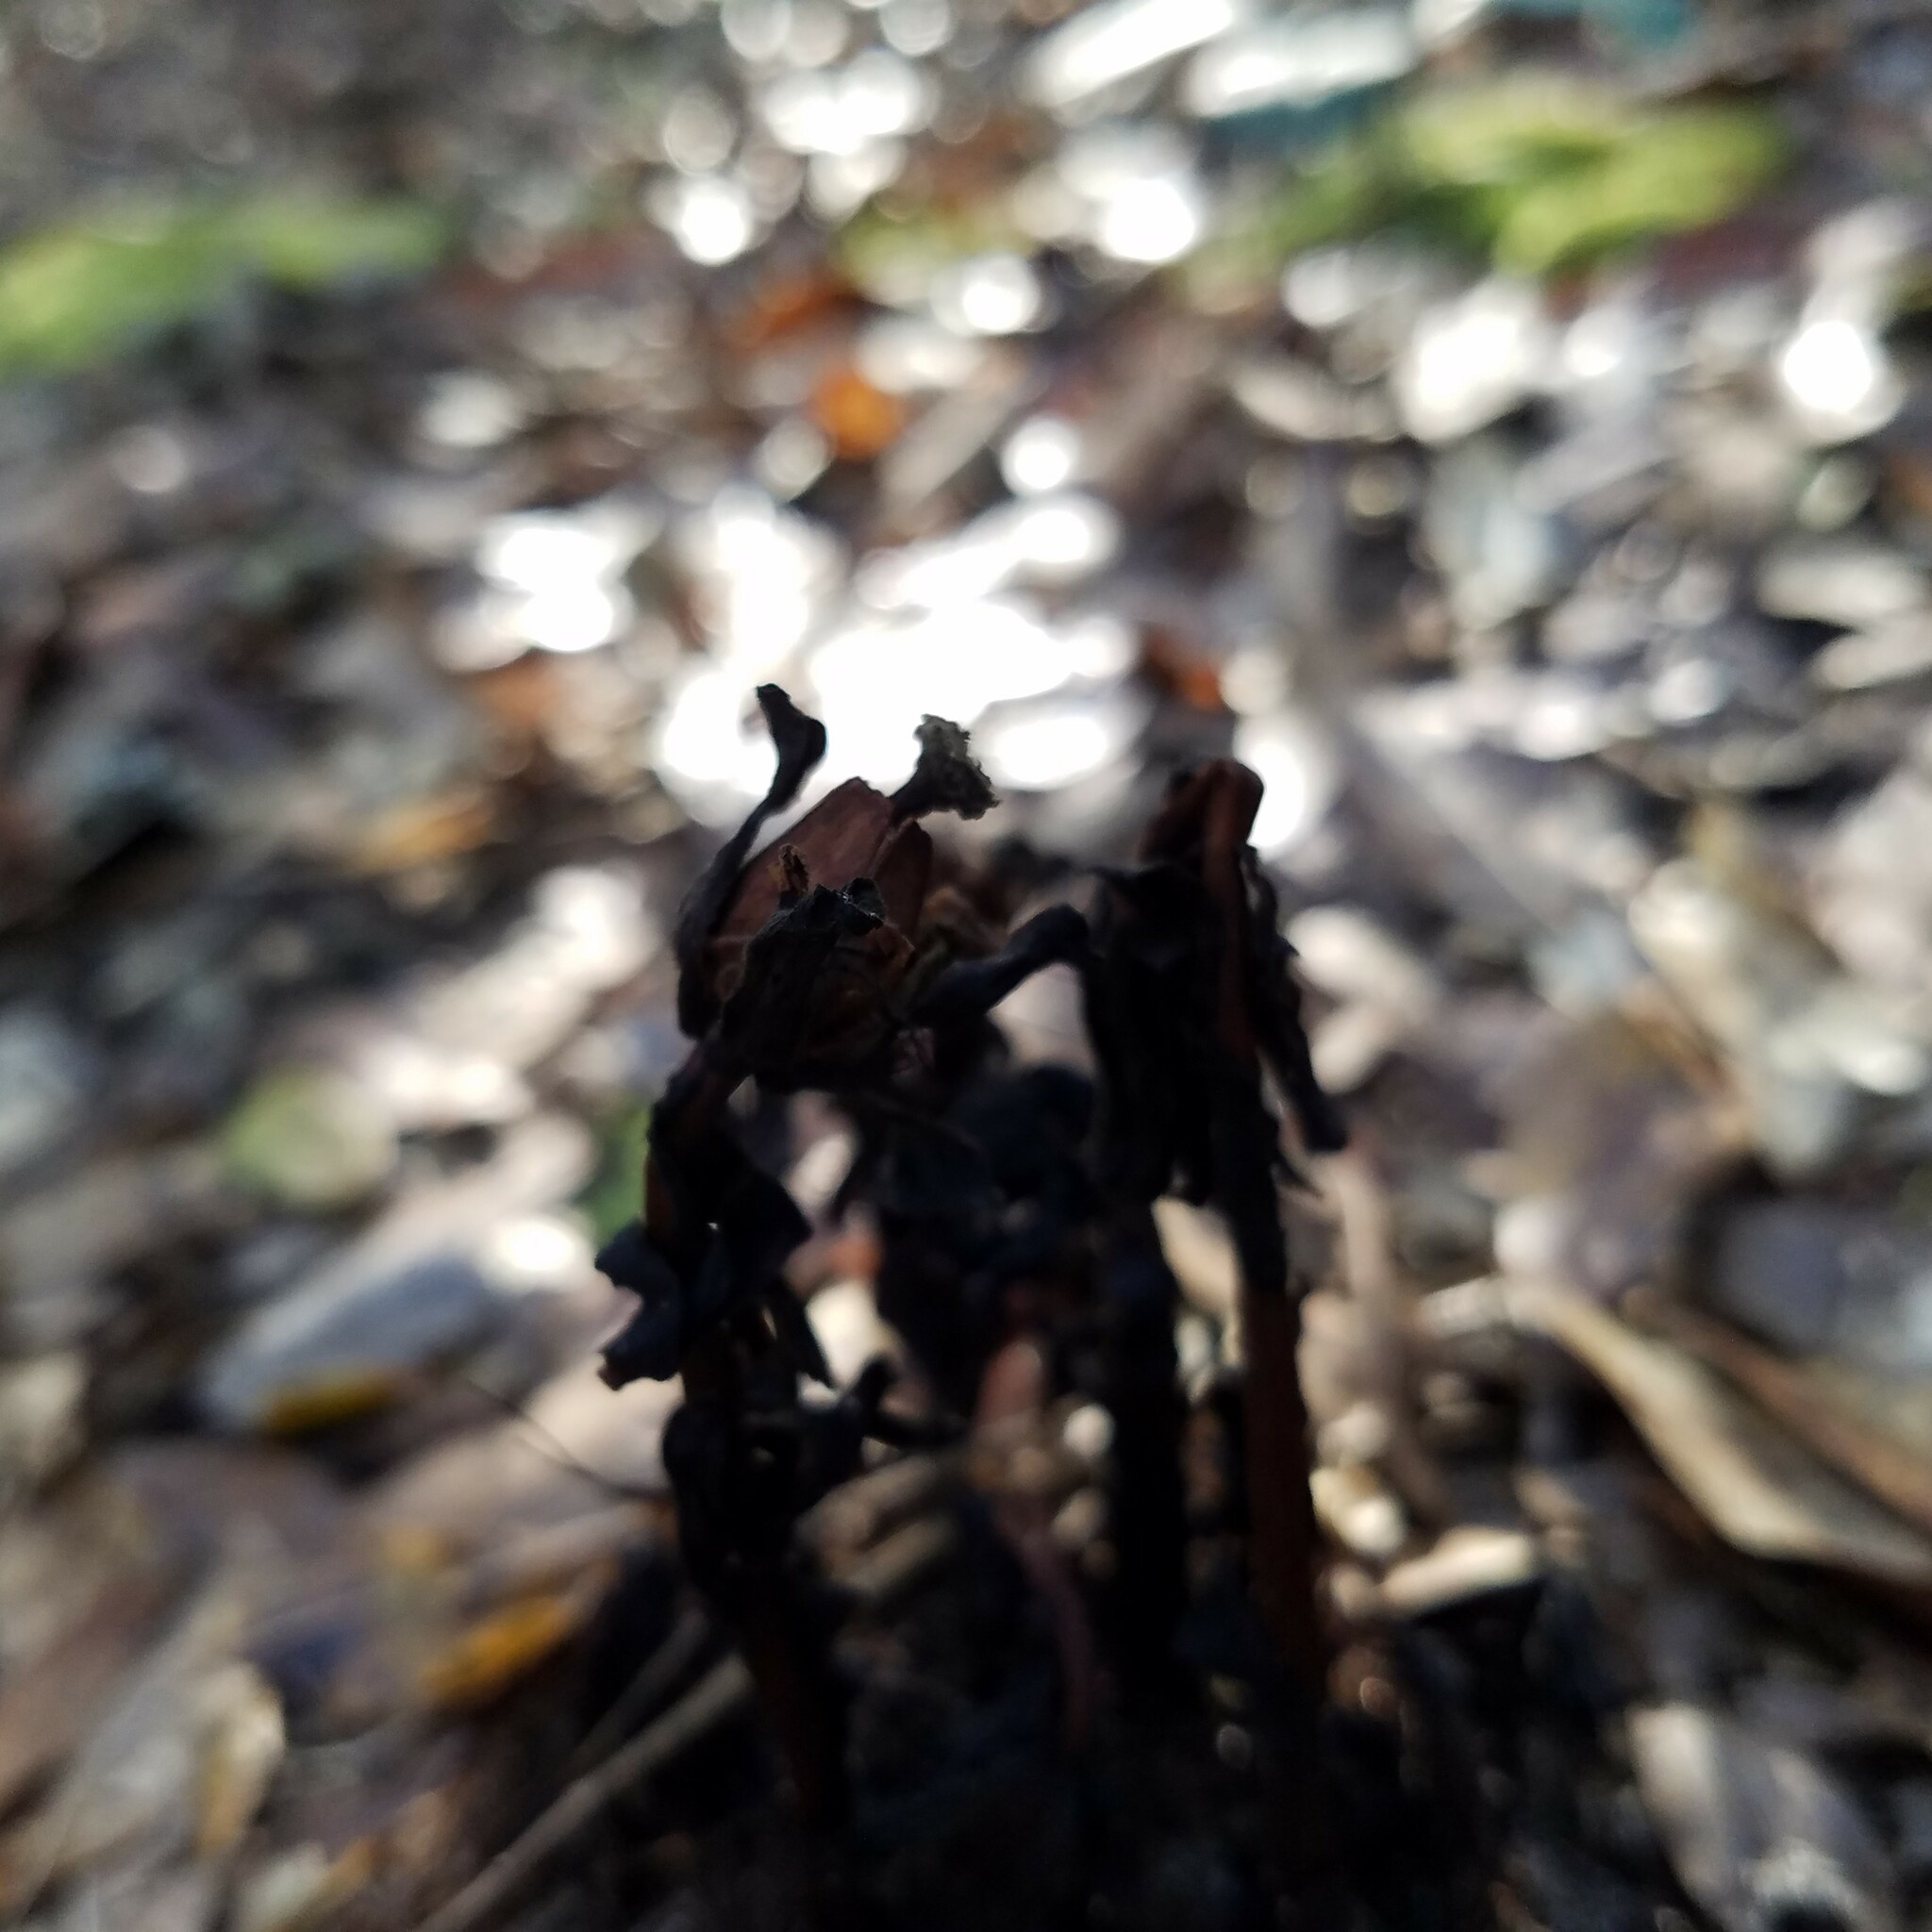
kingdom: Plantae
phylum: Tracheophyta
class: Magnoliopsida
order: Ericales
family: Ericaceae
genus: Monotropa
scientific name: Monotropa uniflora
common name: Convulsion root
